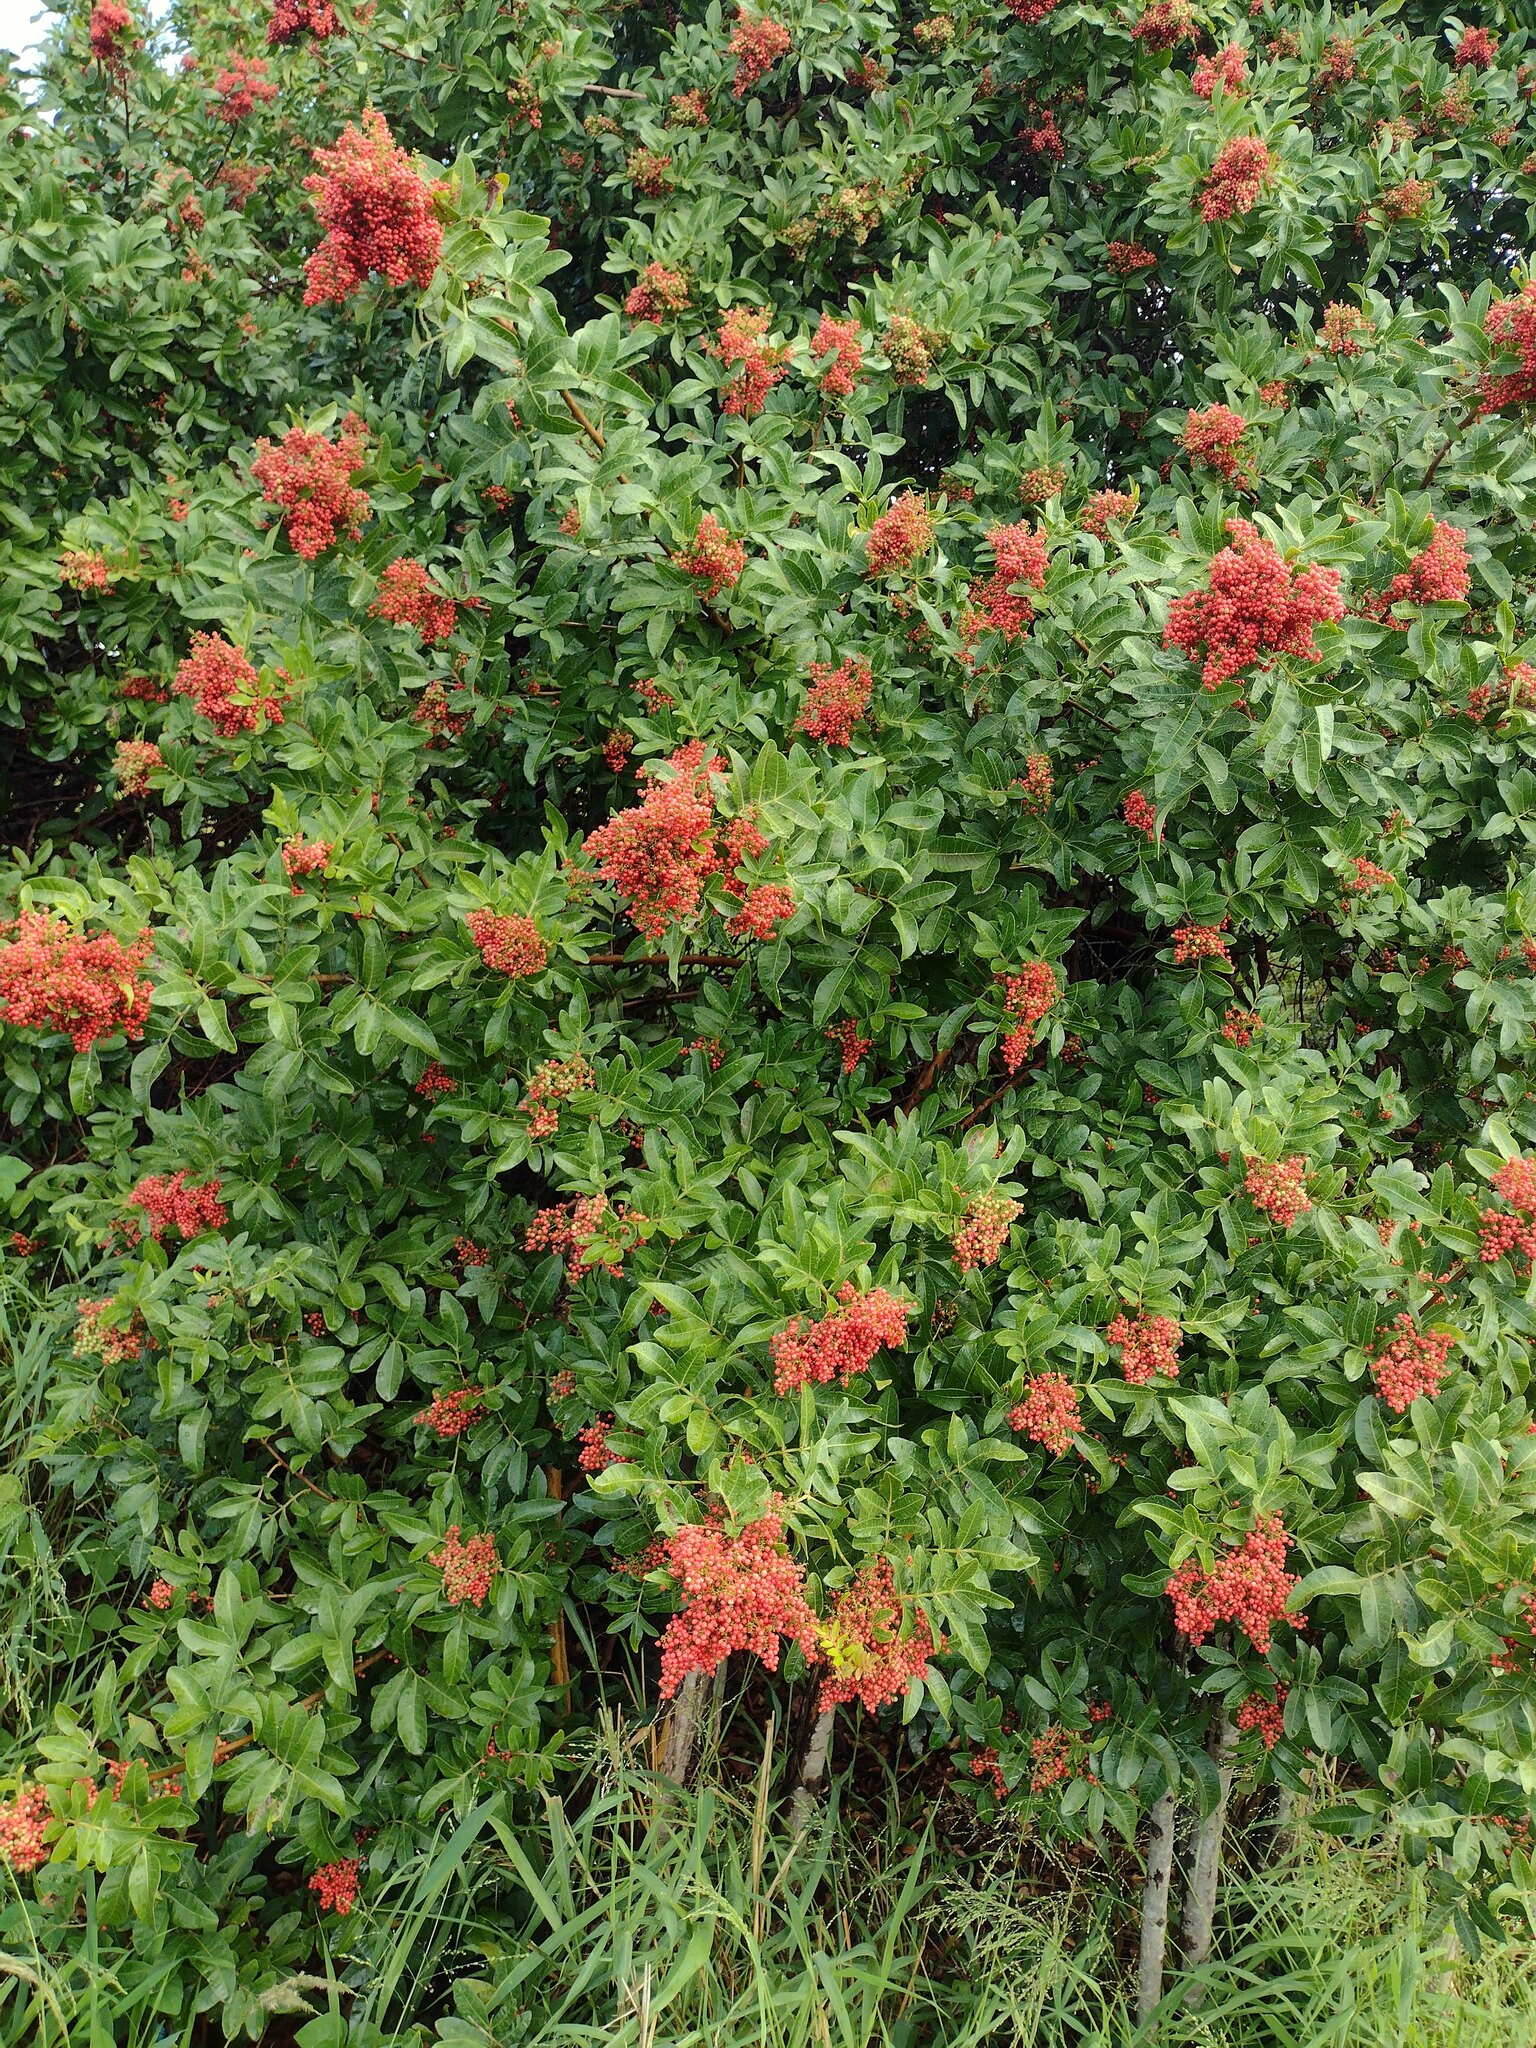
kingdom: Plantae
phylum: Tracheophyta
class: Magnoliopsida
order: Sapindales
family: Anacardiaceae
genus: Schinus
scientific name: Schinus terebinthifolia
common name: Brazilian peppertree
